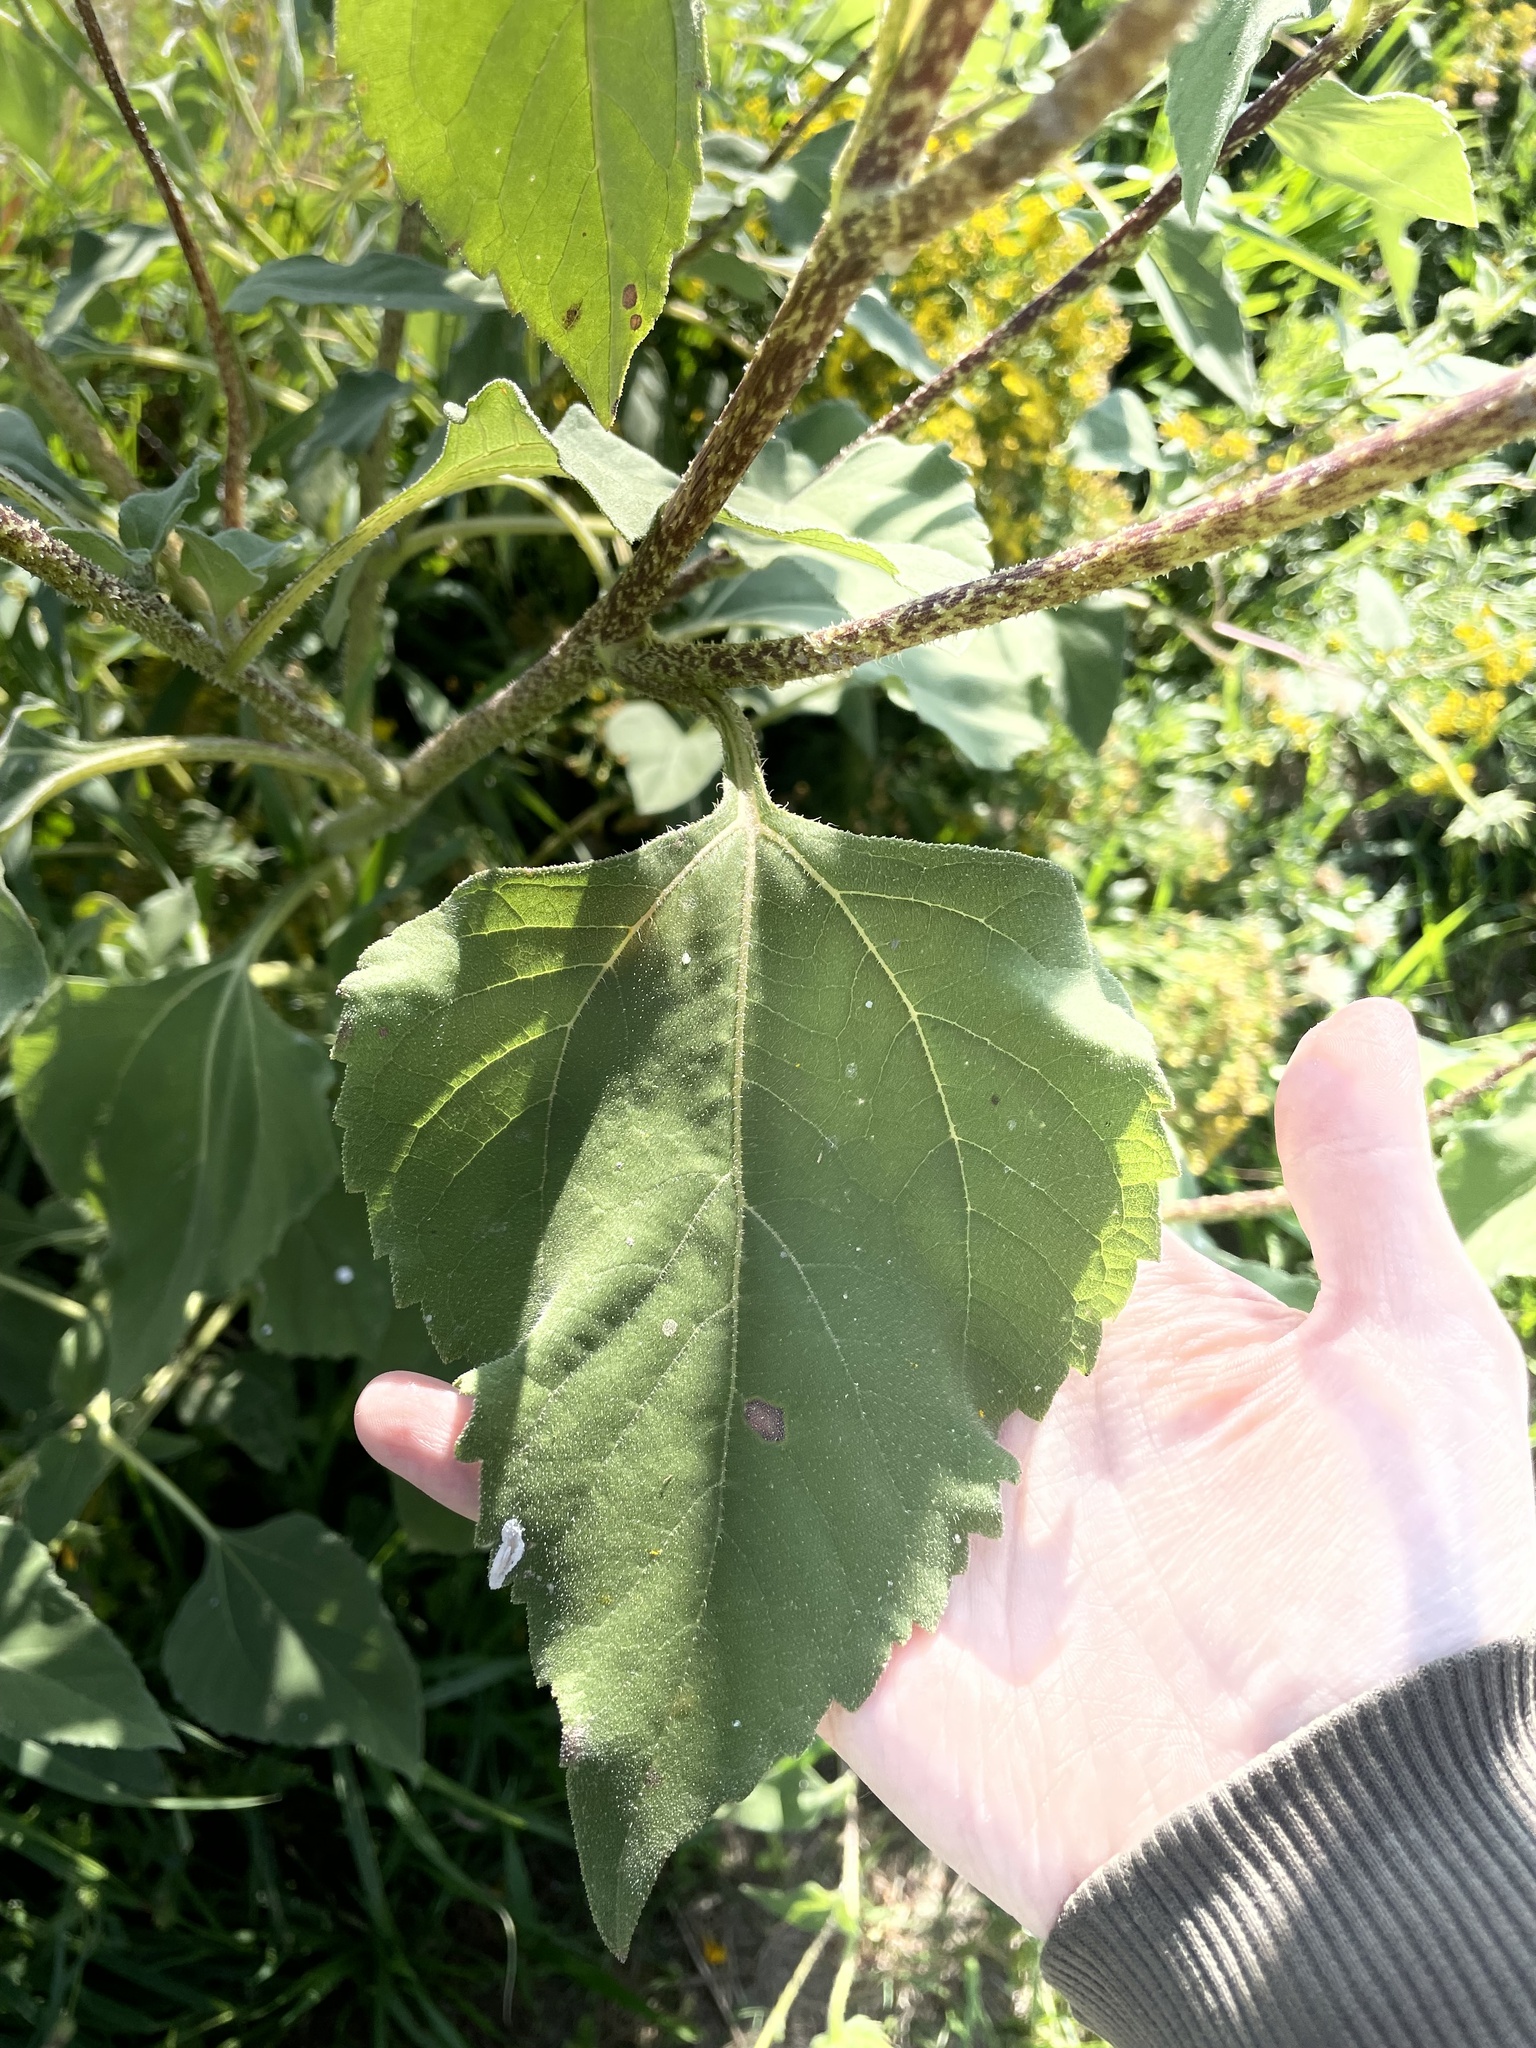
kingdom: Plantae
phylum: Tracheophyta
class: Magnoliopsida
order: Asterales
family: Asteraceae
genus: Helianthus
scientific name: Helianthus annuus
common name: Sunflower
